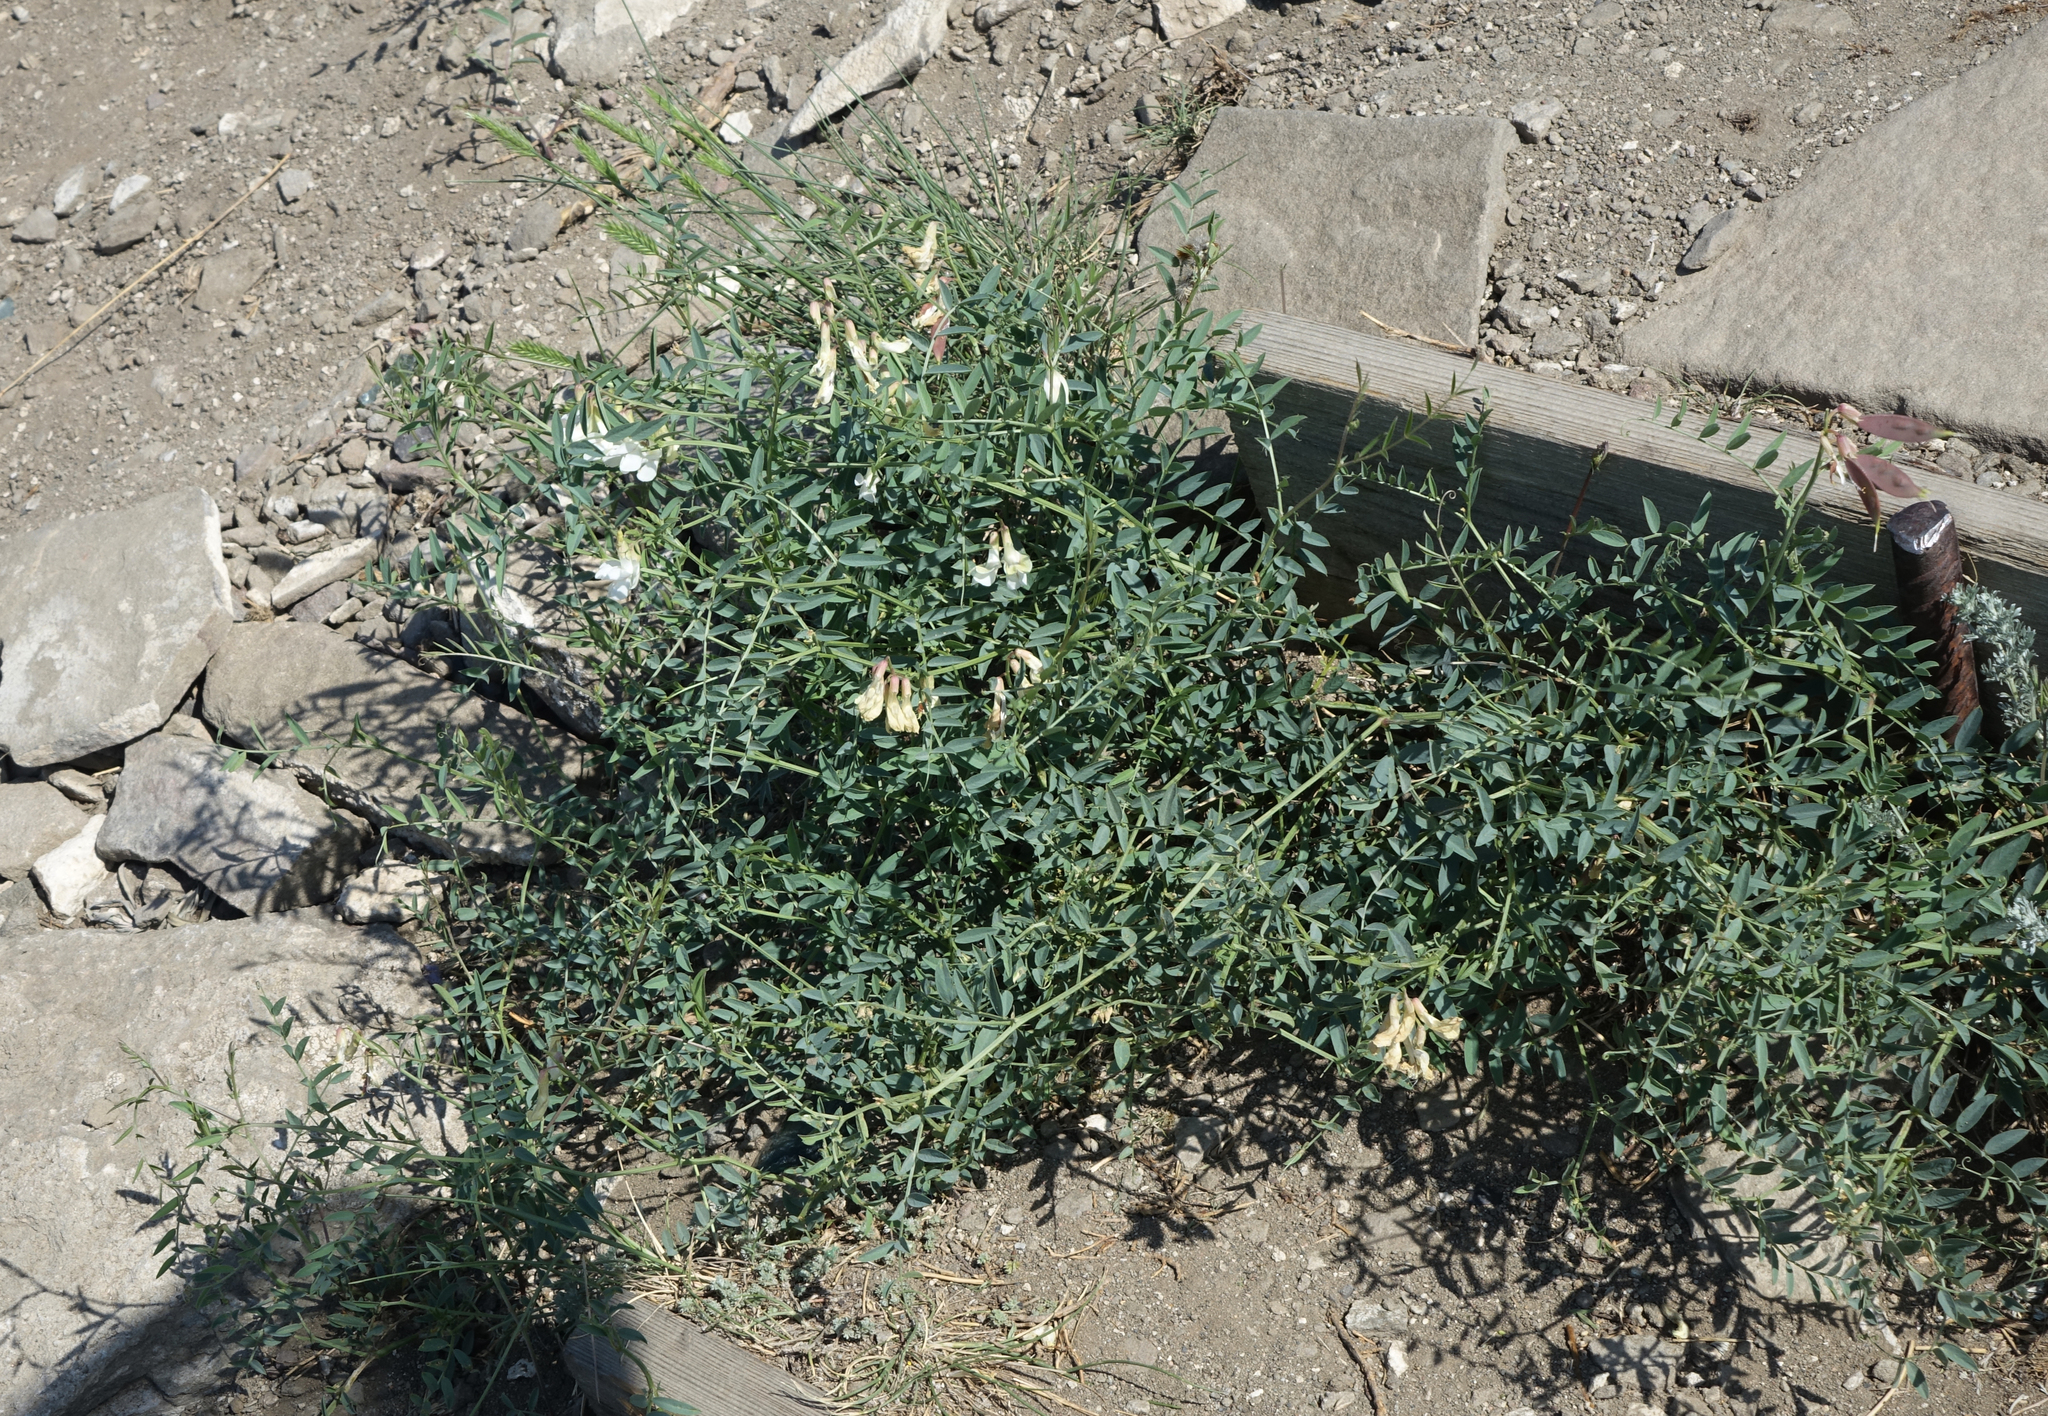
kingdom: Plantae
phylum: Tracheophyta
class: Magnoliopsida
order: Fabales
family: Fabaceae
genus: Vicia
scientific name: Vicia costata
